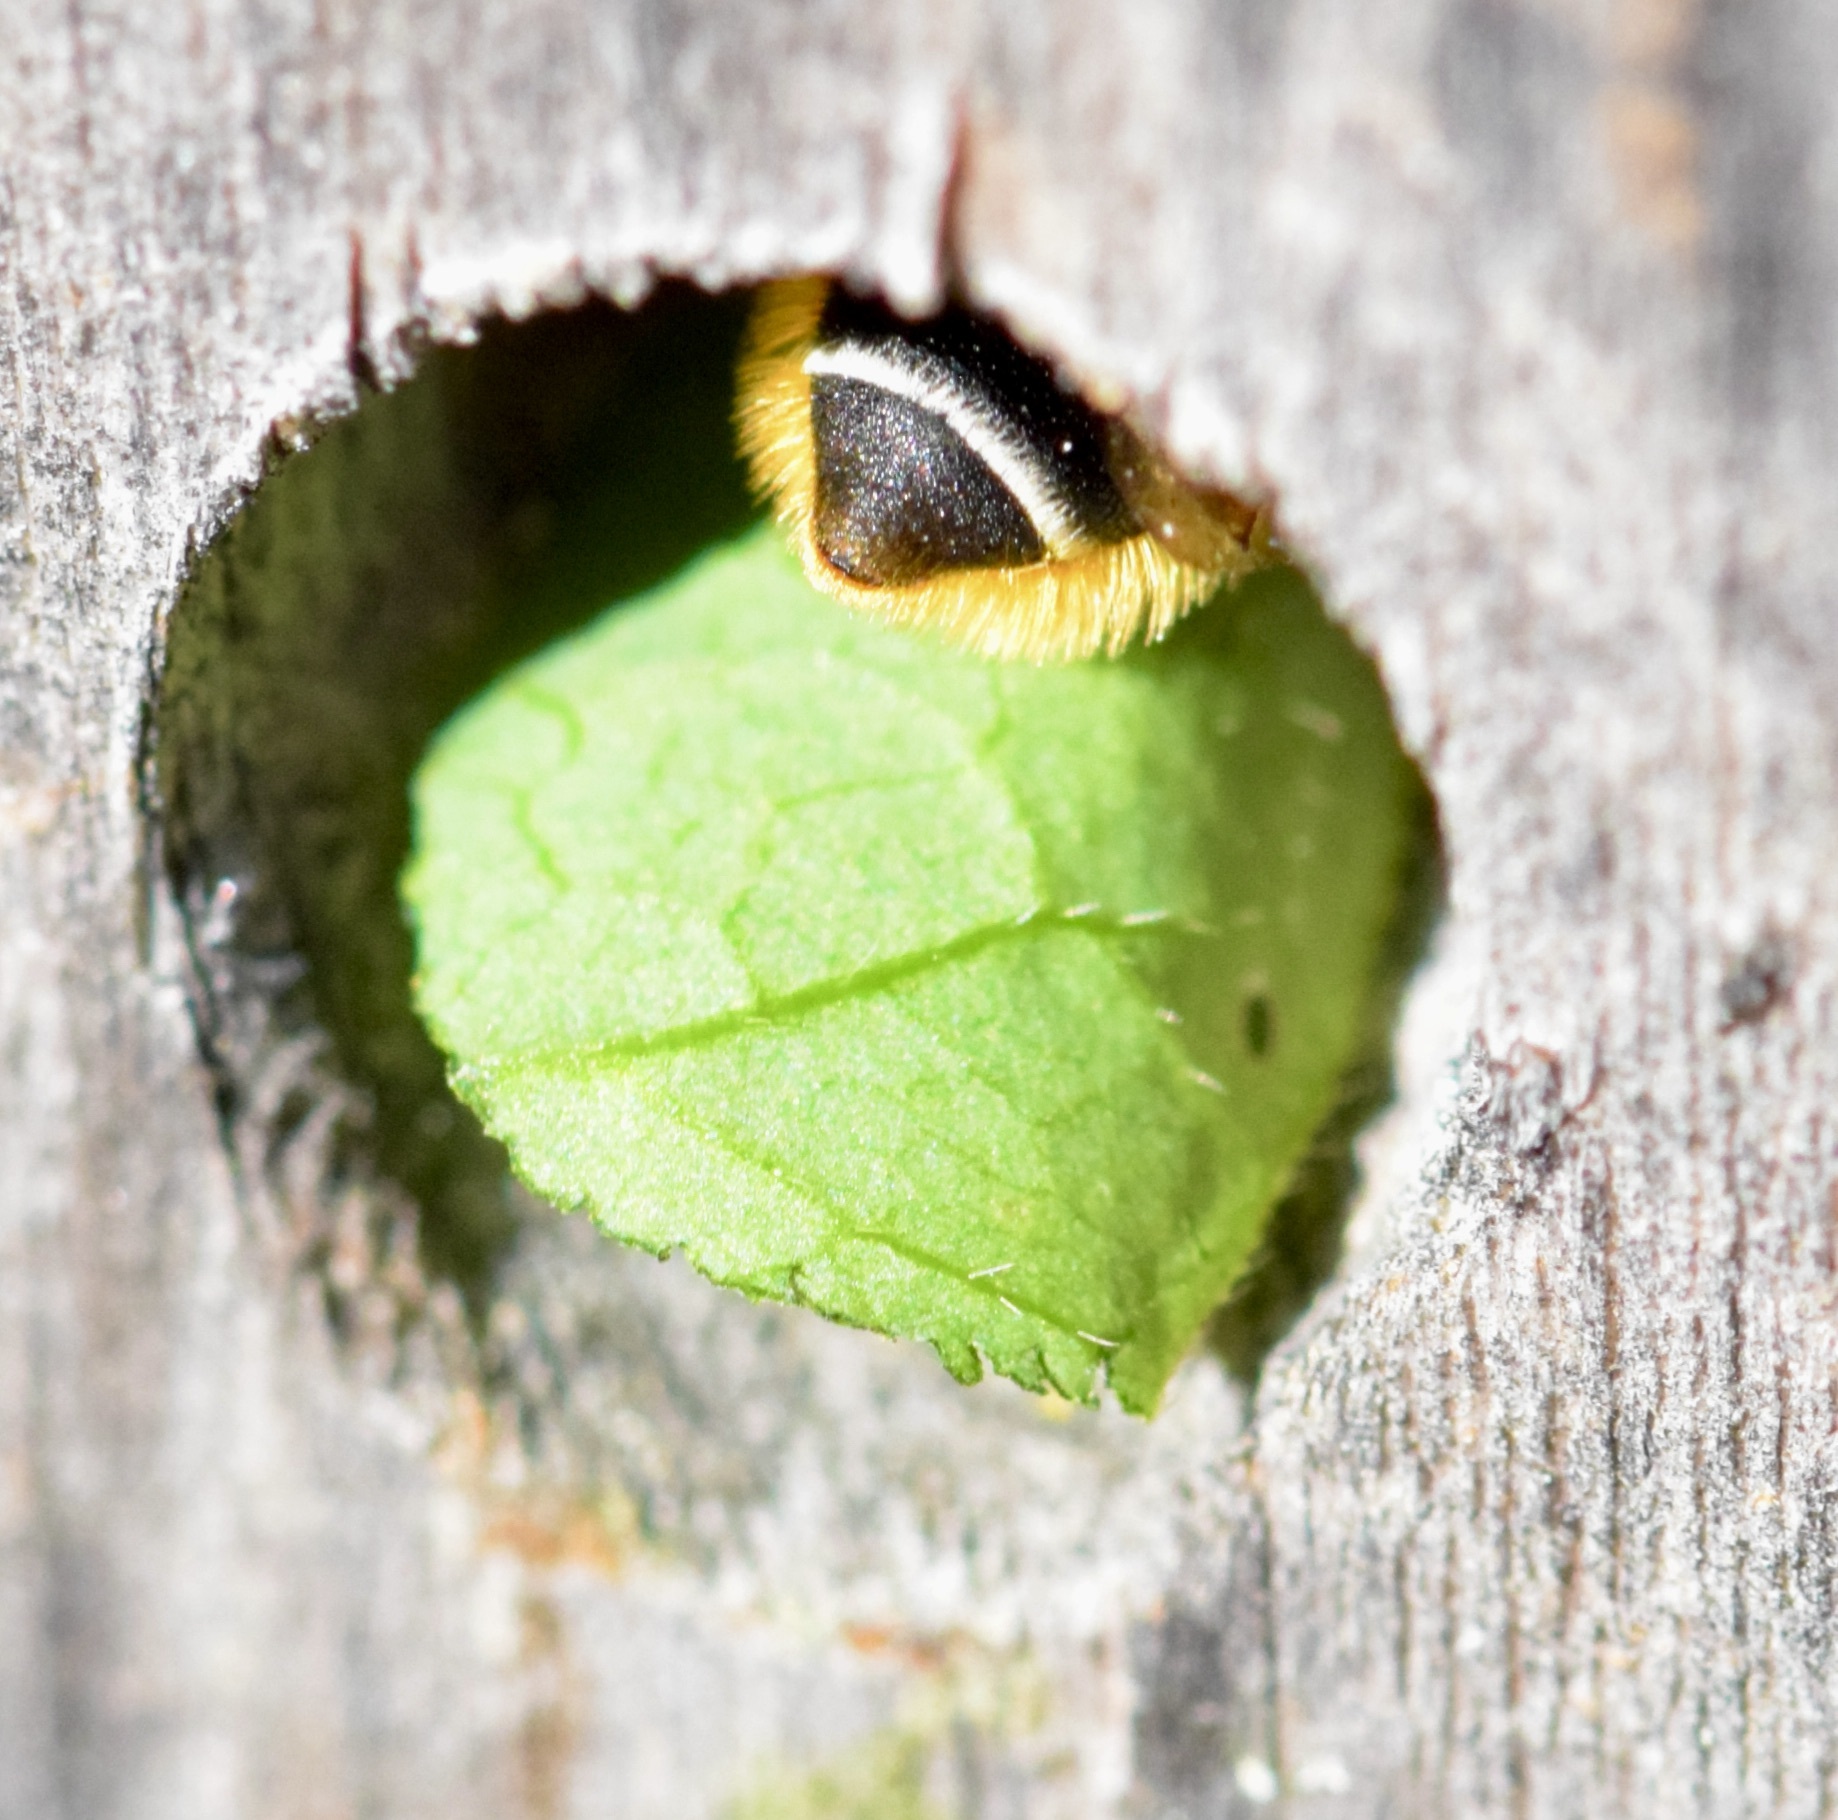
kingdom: Animalia
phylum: Arthropoda
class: Insecta
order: Hymenoptera
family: Megachilidae
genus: Megachile
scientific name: Megachile relativa
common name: Golden-tailed leafcutter
